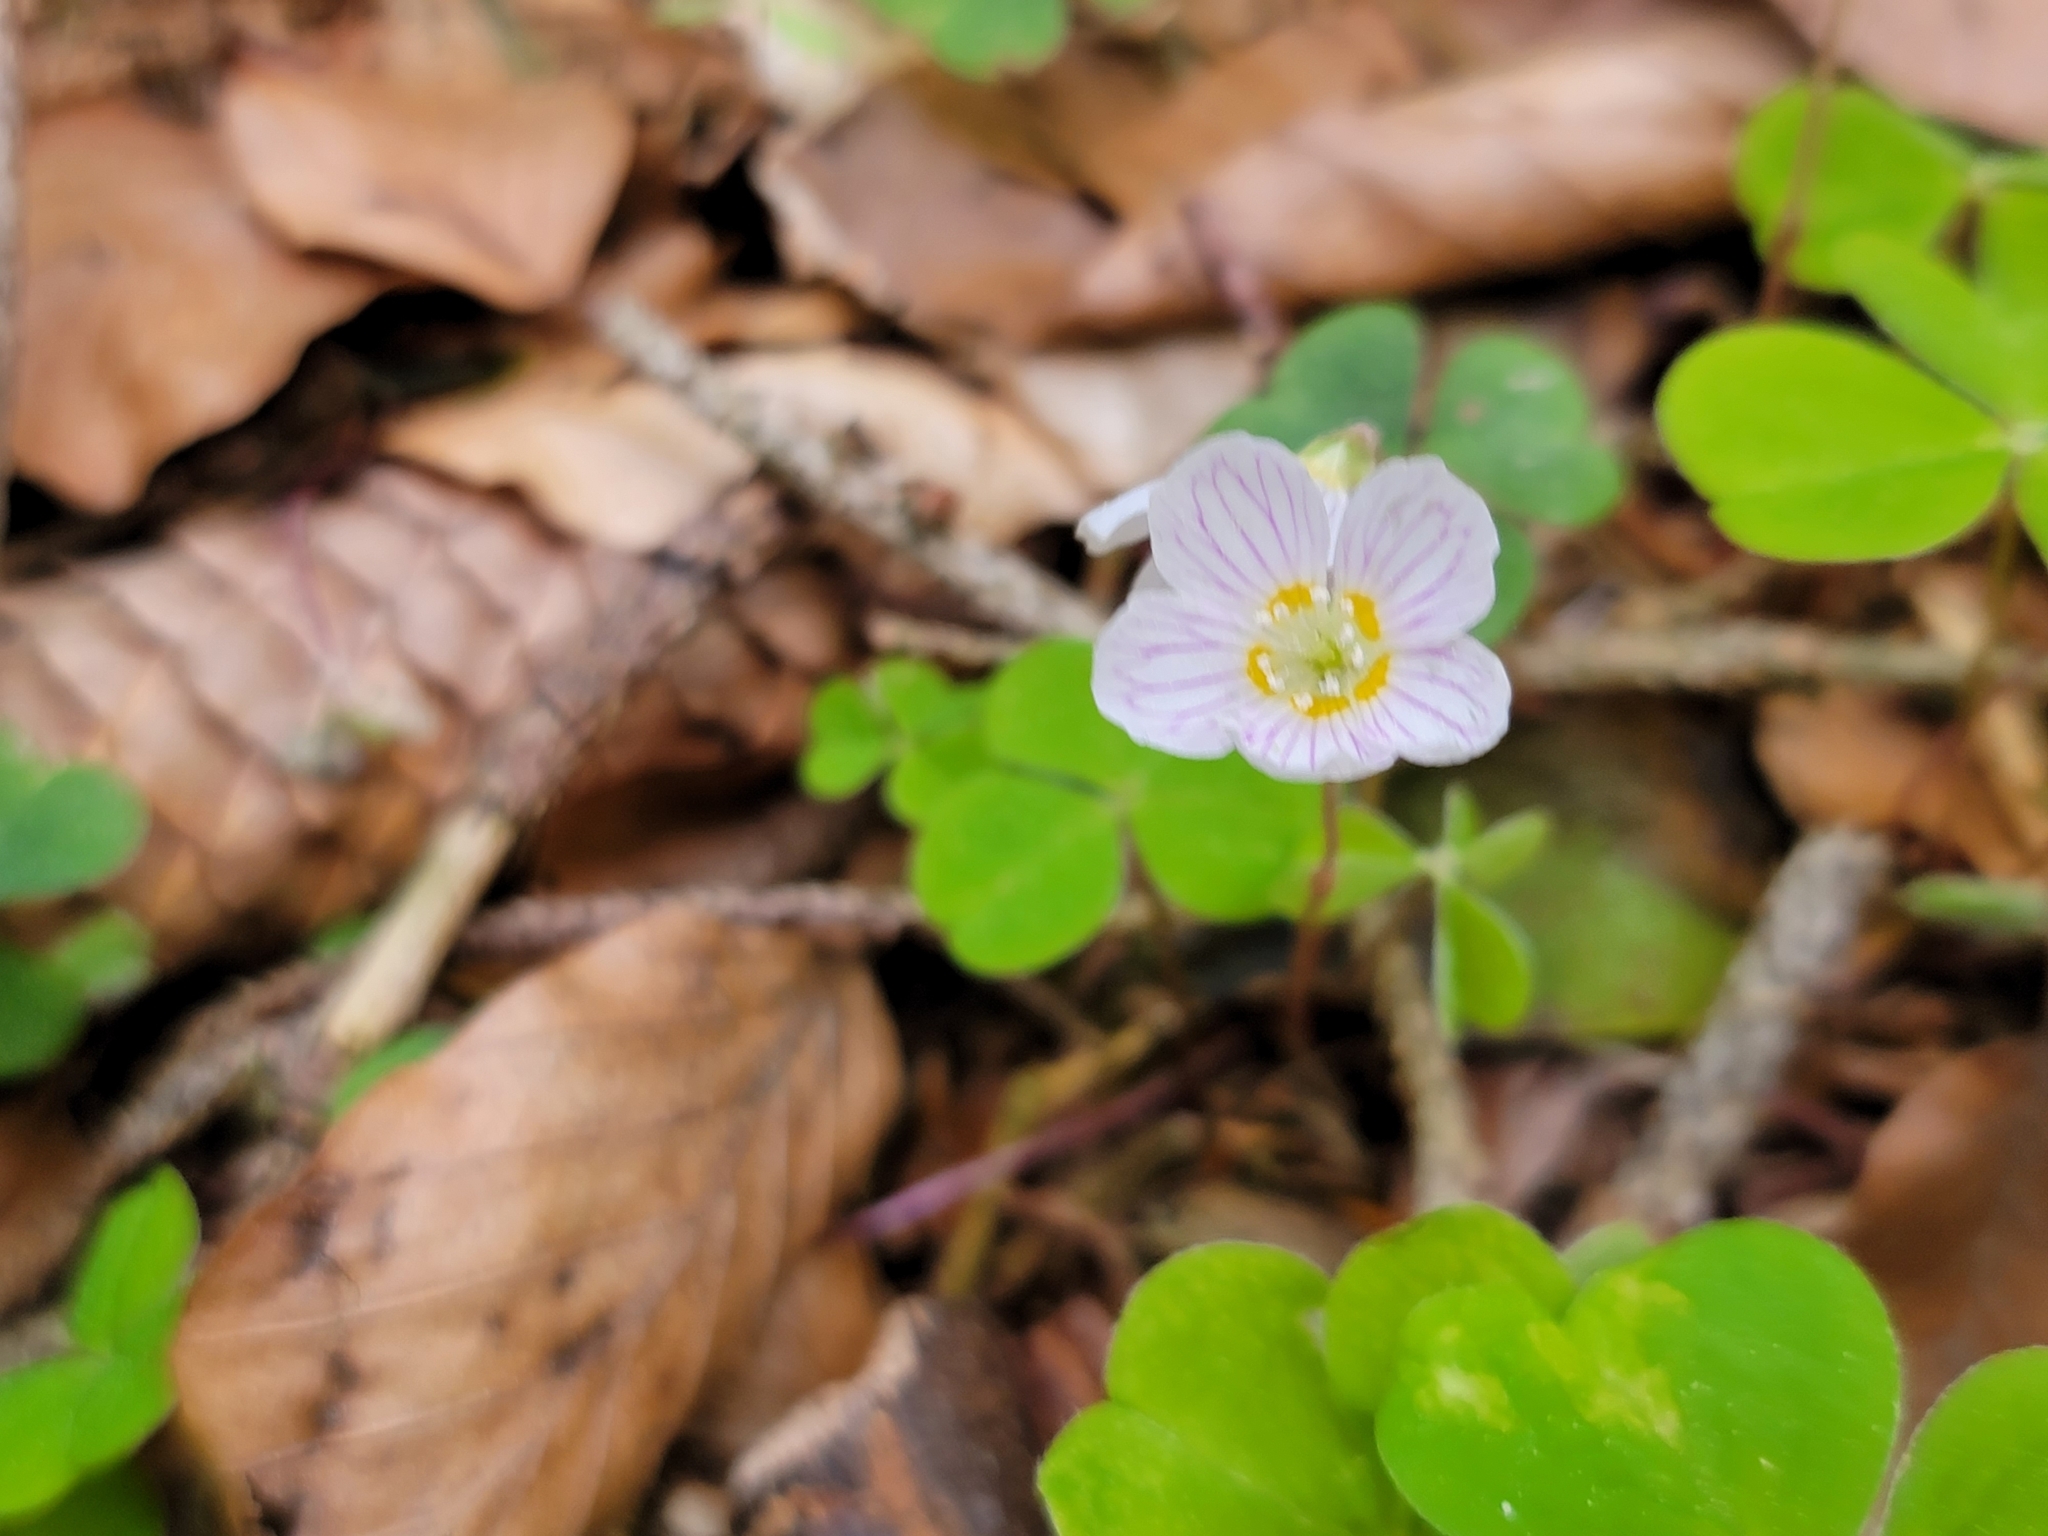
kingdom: Plantae
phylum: Tracheophyta
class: Magnoliopsida
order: Oxalidales
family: Oxalidaceae
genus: Oxalis
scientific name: Oxalis acetosella
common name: Wood-sorrel
